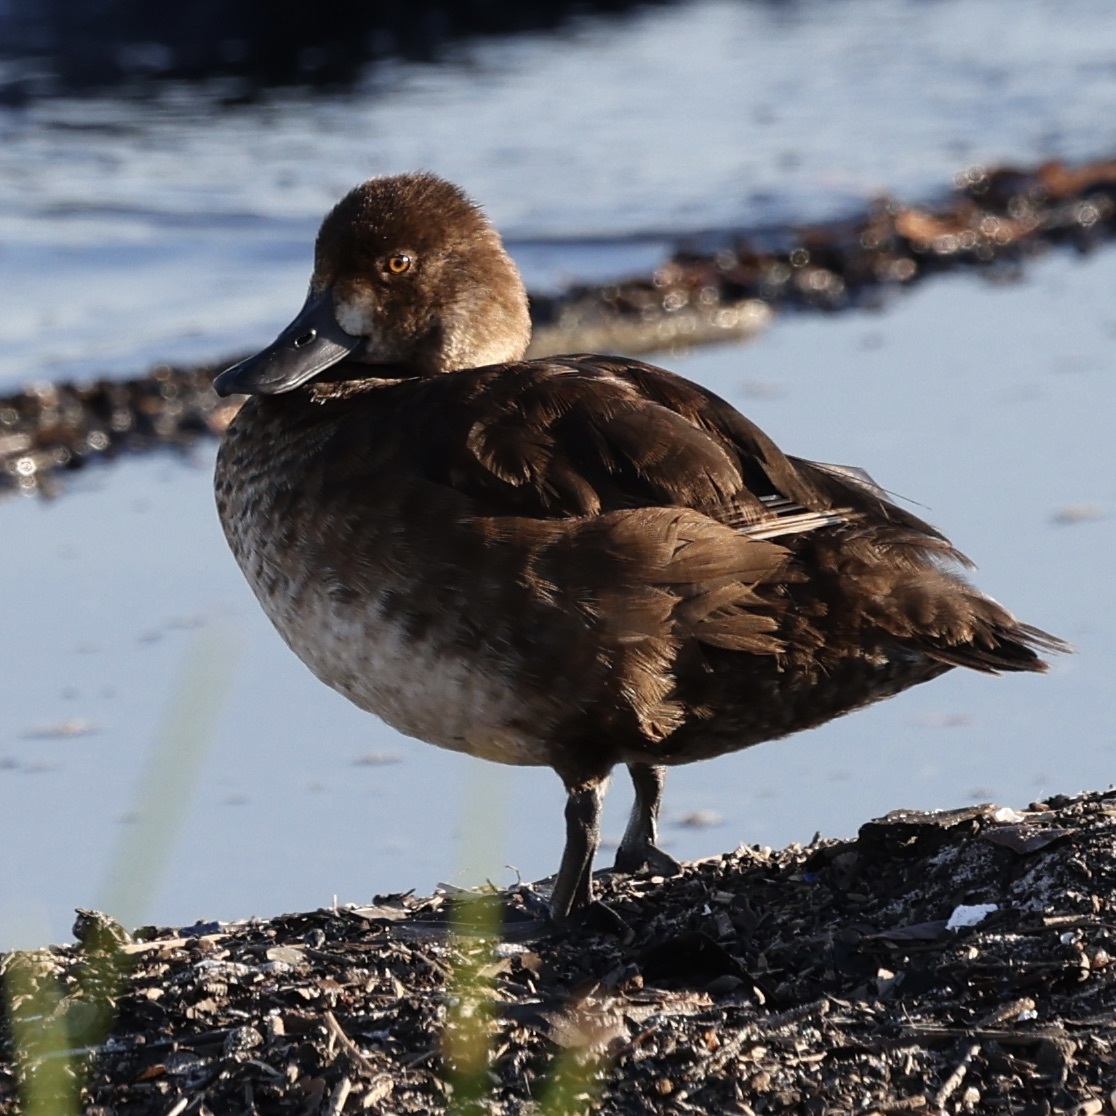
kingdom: Animalia
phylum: Chordata
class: Aves
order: Anseriformes
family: Anatidae
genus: Aythya
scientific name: Aythya affinis
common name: Lesser scaup
